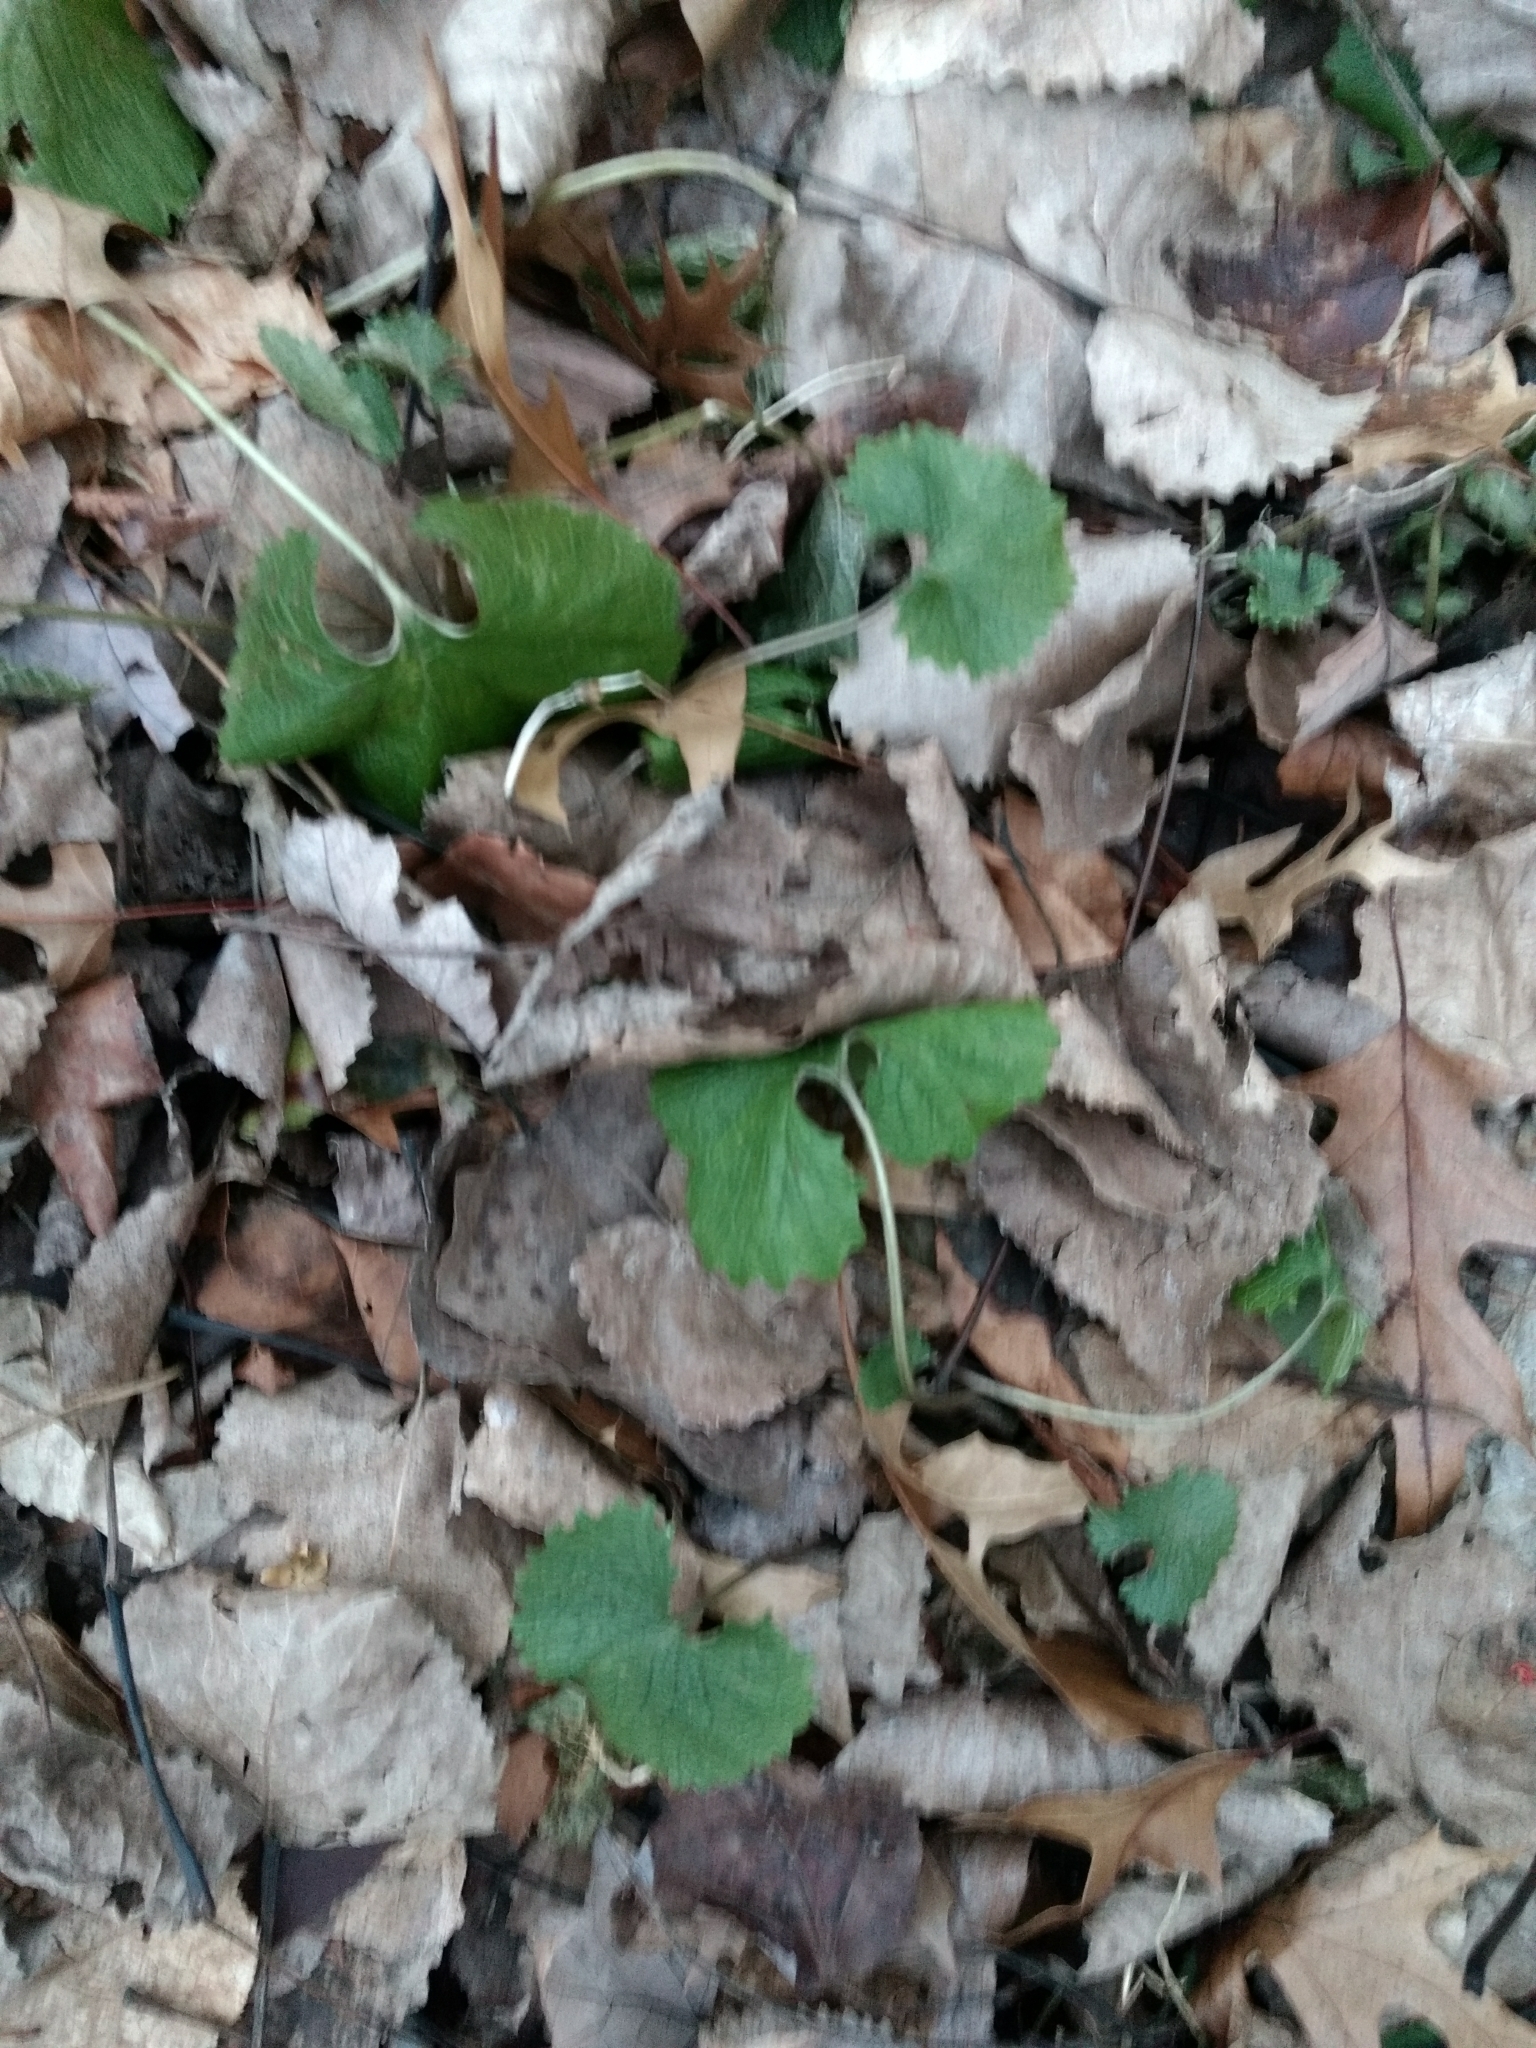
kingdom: Plantae
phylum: Tracheophyta
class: Magnoliopsida
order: Brassicales
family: Brassicaceae
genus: Alliaria
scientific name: Alliaria petiolata
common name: Garlic mustard
